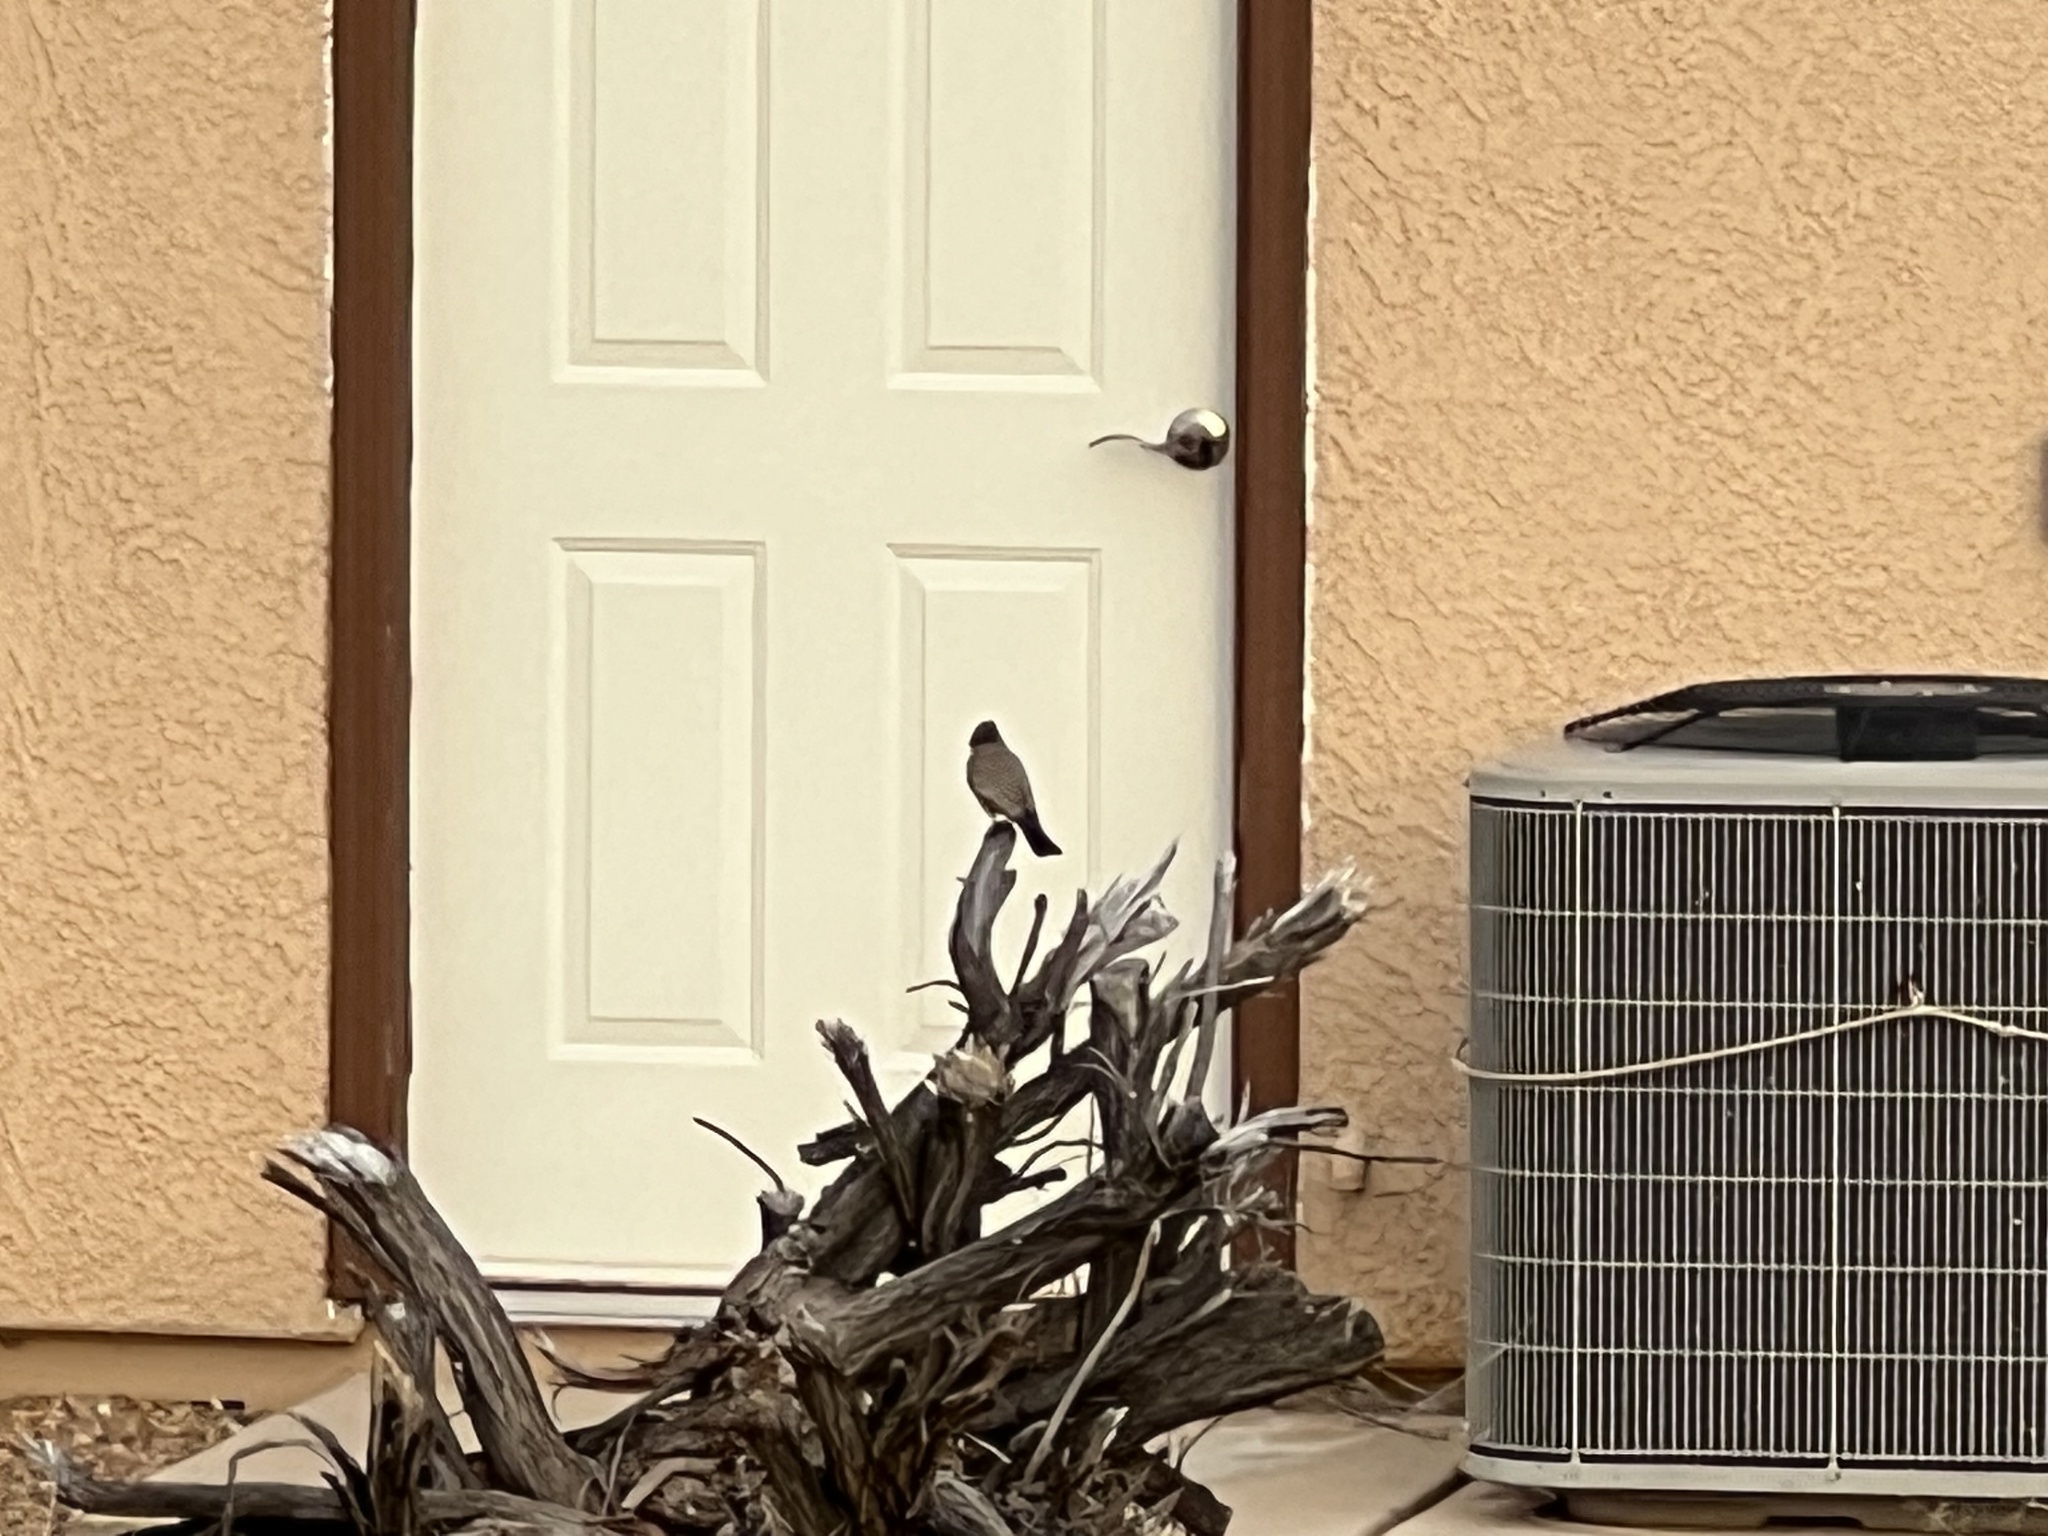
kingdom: Animalia
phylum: Chordata
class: Aves
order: Passeriformes
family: Tyrannidae
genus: Sayornis
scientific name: Sayornis saya
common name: Say's phoebe
